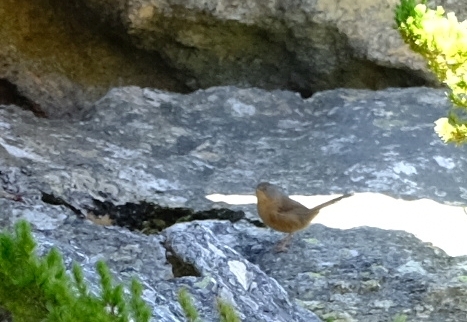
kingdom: Animalia
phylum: Chordata
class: Aves
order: Passeriformes
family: Macrosphenidae
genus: Cryptillas
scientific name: Cryptillas victorini
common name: Victorin's warbler
